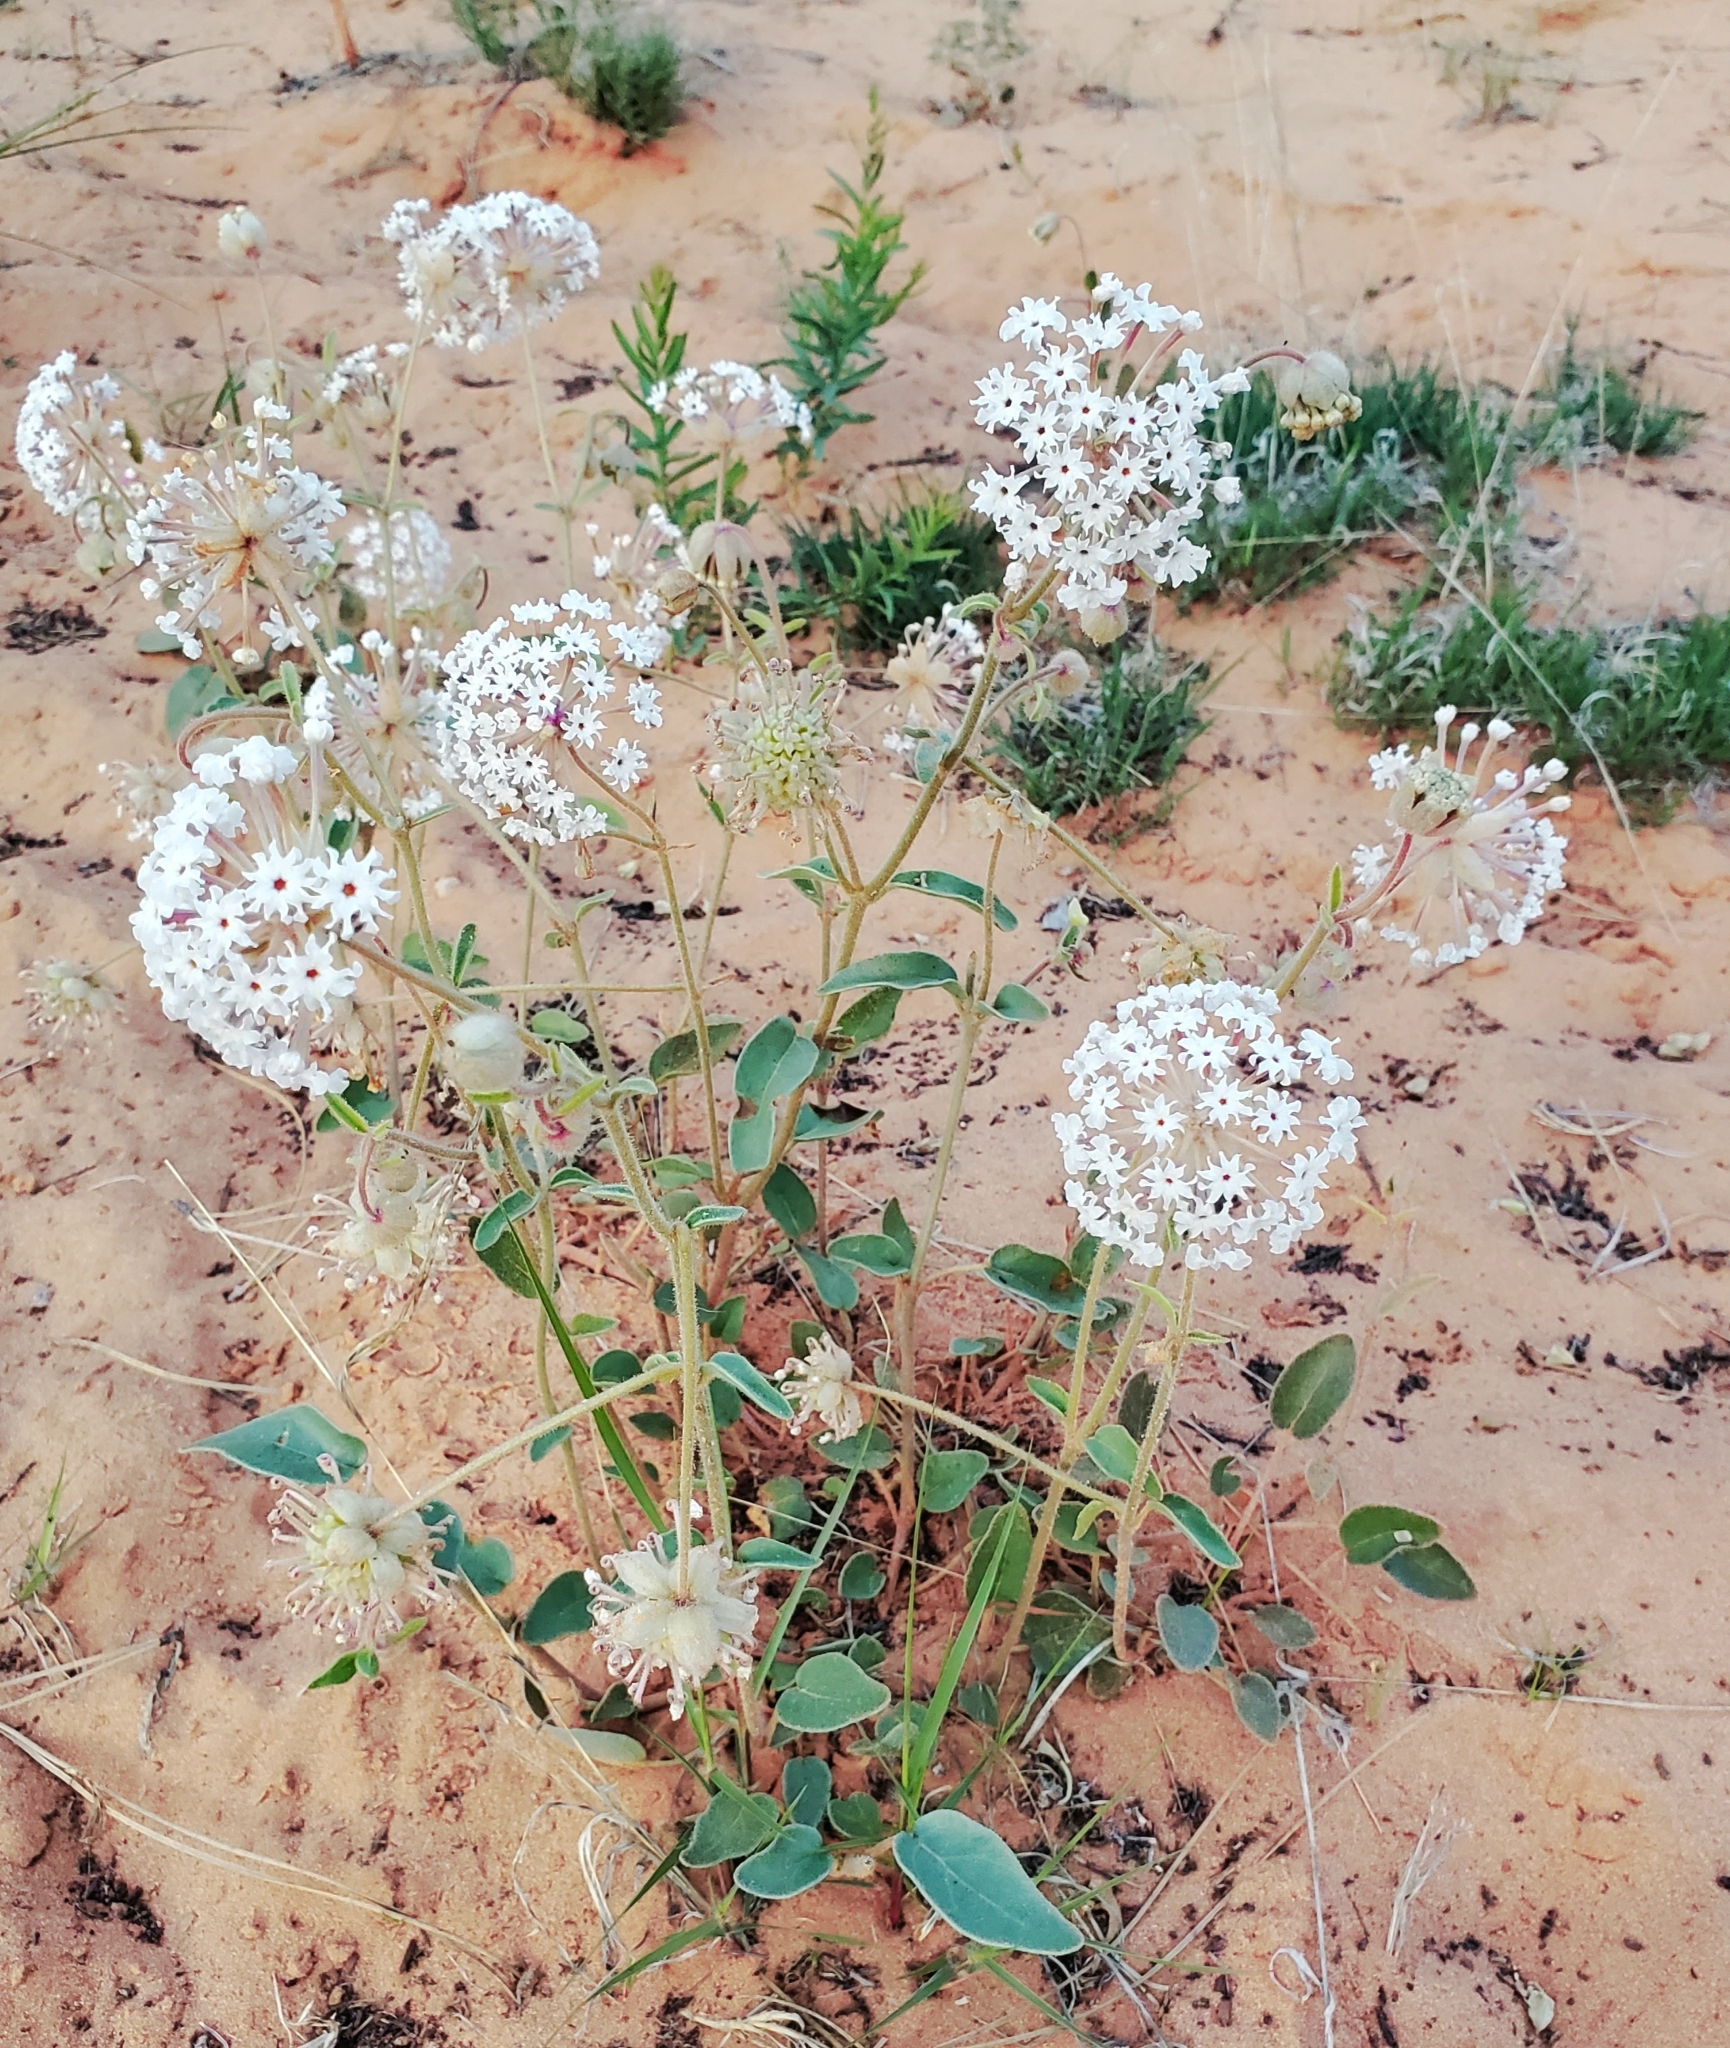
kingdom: Plantae
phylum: Tracheophyta
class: Magnoliopsida
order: Caryophyllales
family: Nyctaginaceae
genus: Abronia
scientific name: Abronia elliptica
